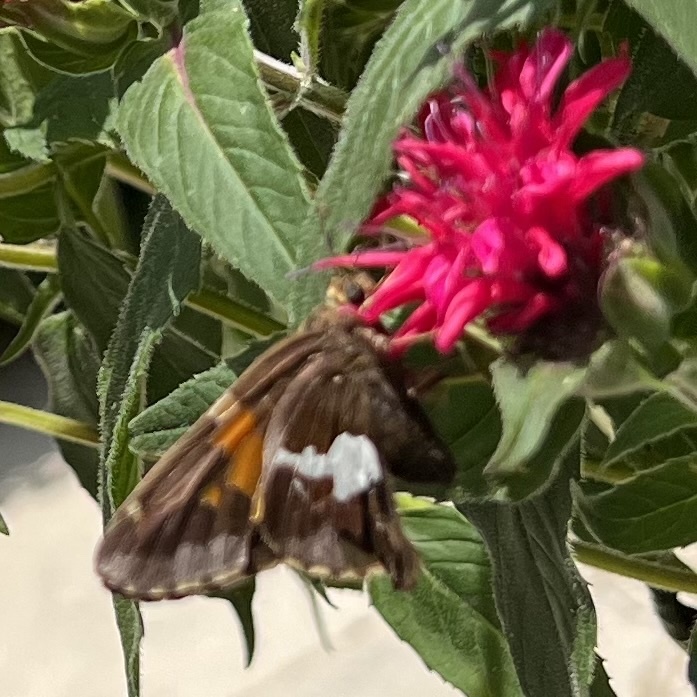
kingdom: Animalia
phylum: Arthropoda
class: Insecta
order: Lepidoptera
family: Hesperiidae
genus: Epargyreus
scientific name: Epargyreus clarus
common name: Silver-spotted skipper
